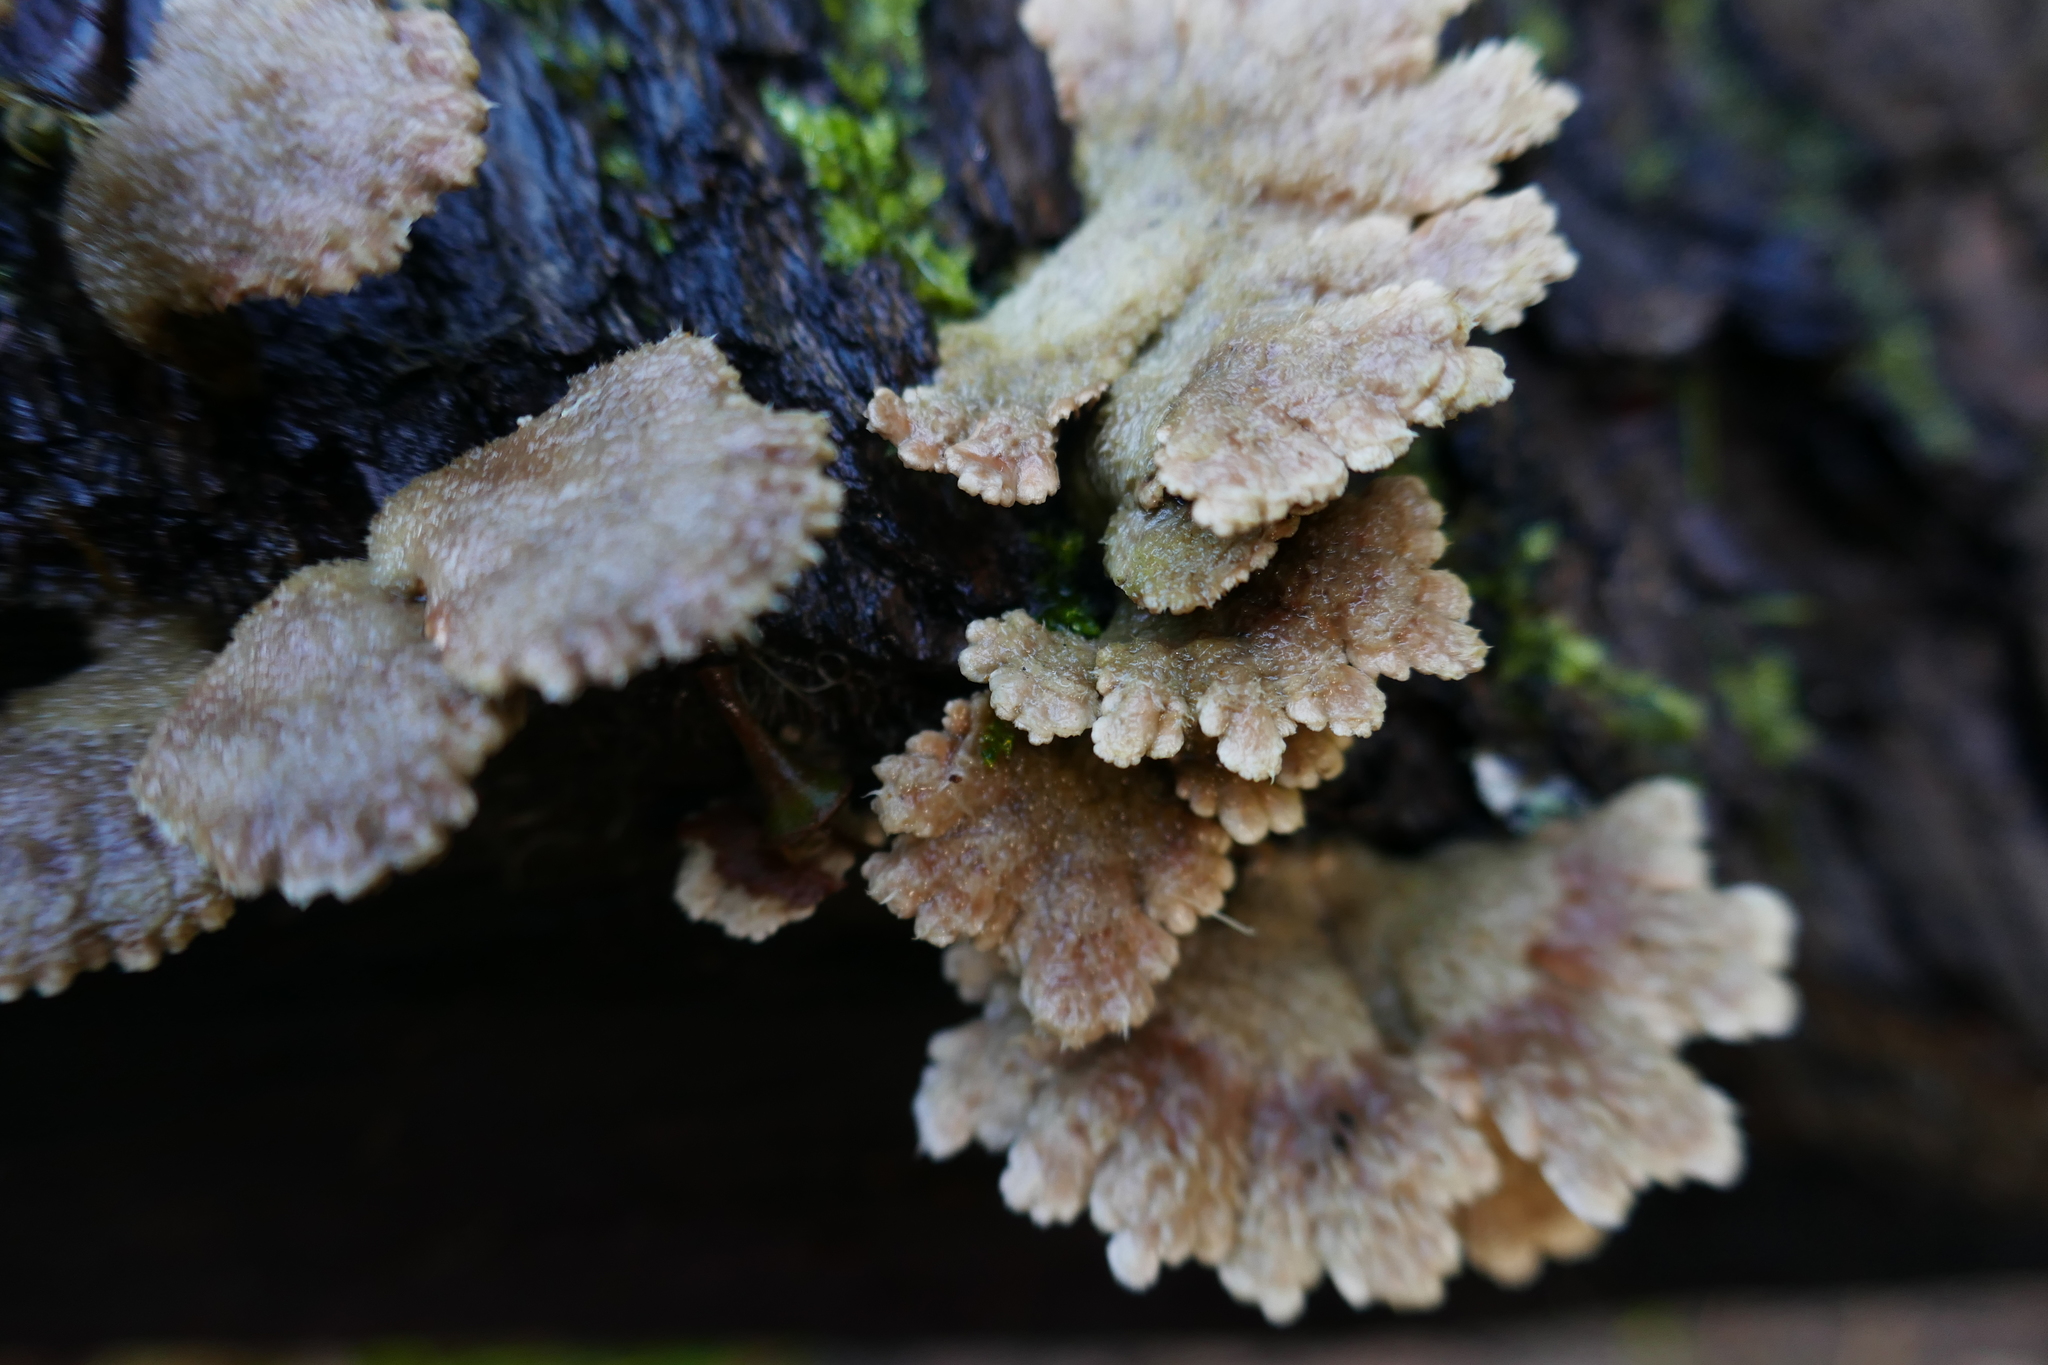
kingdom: Fungi
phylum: Basidiomycota
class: Agaricomycetes
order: Agaricales
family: Schizophyllaceae
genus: Schizophyllum
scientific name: Schizophyllum commune
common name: Common porecrust
